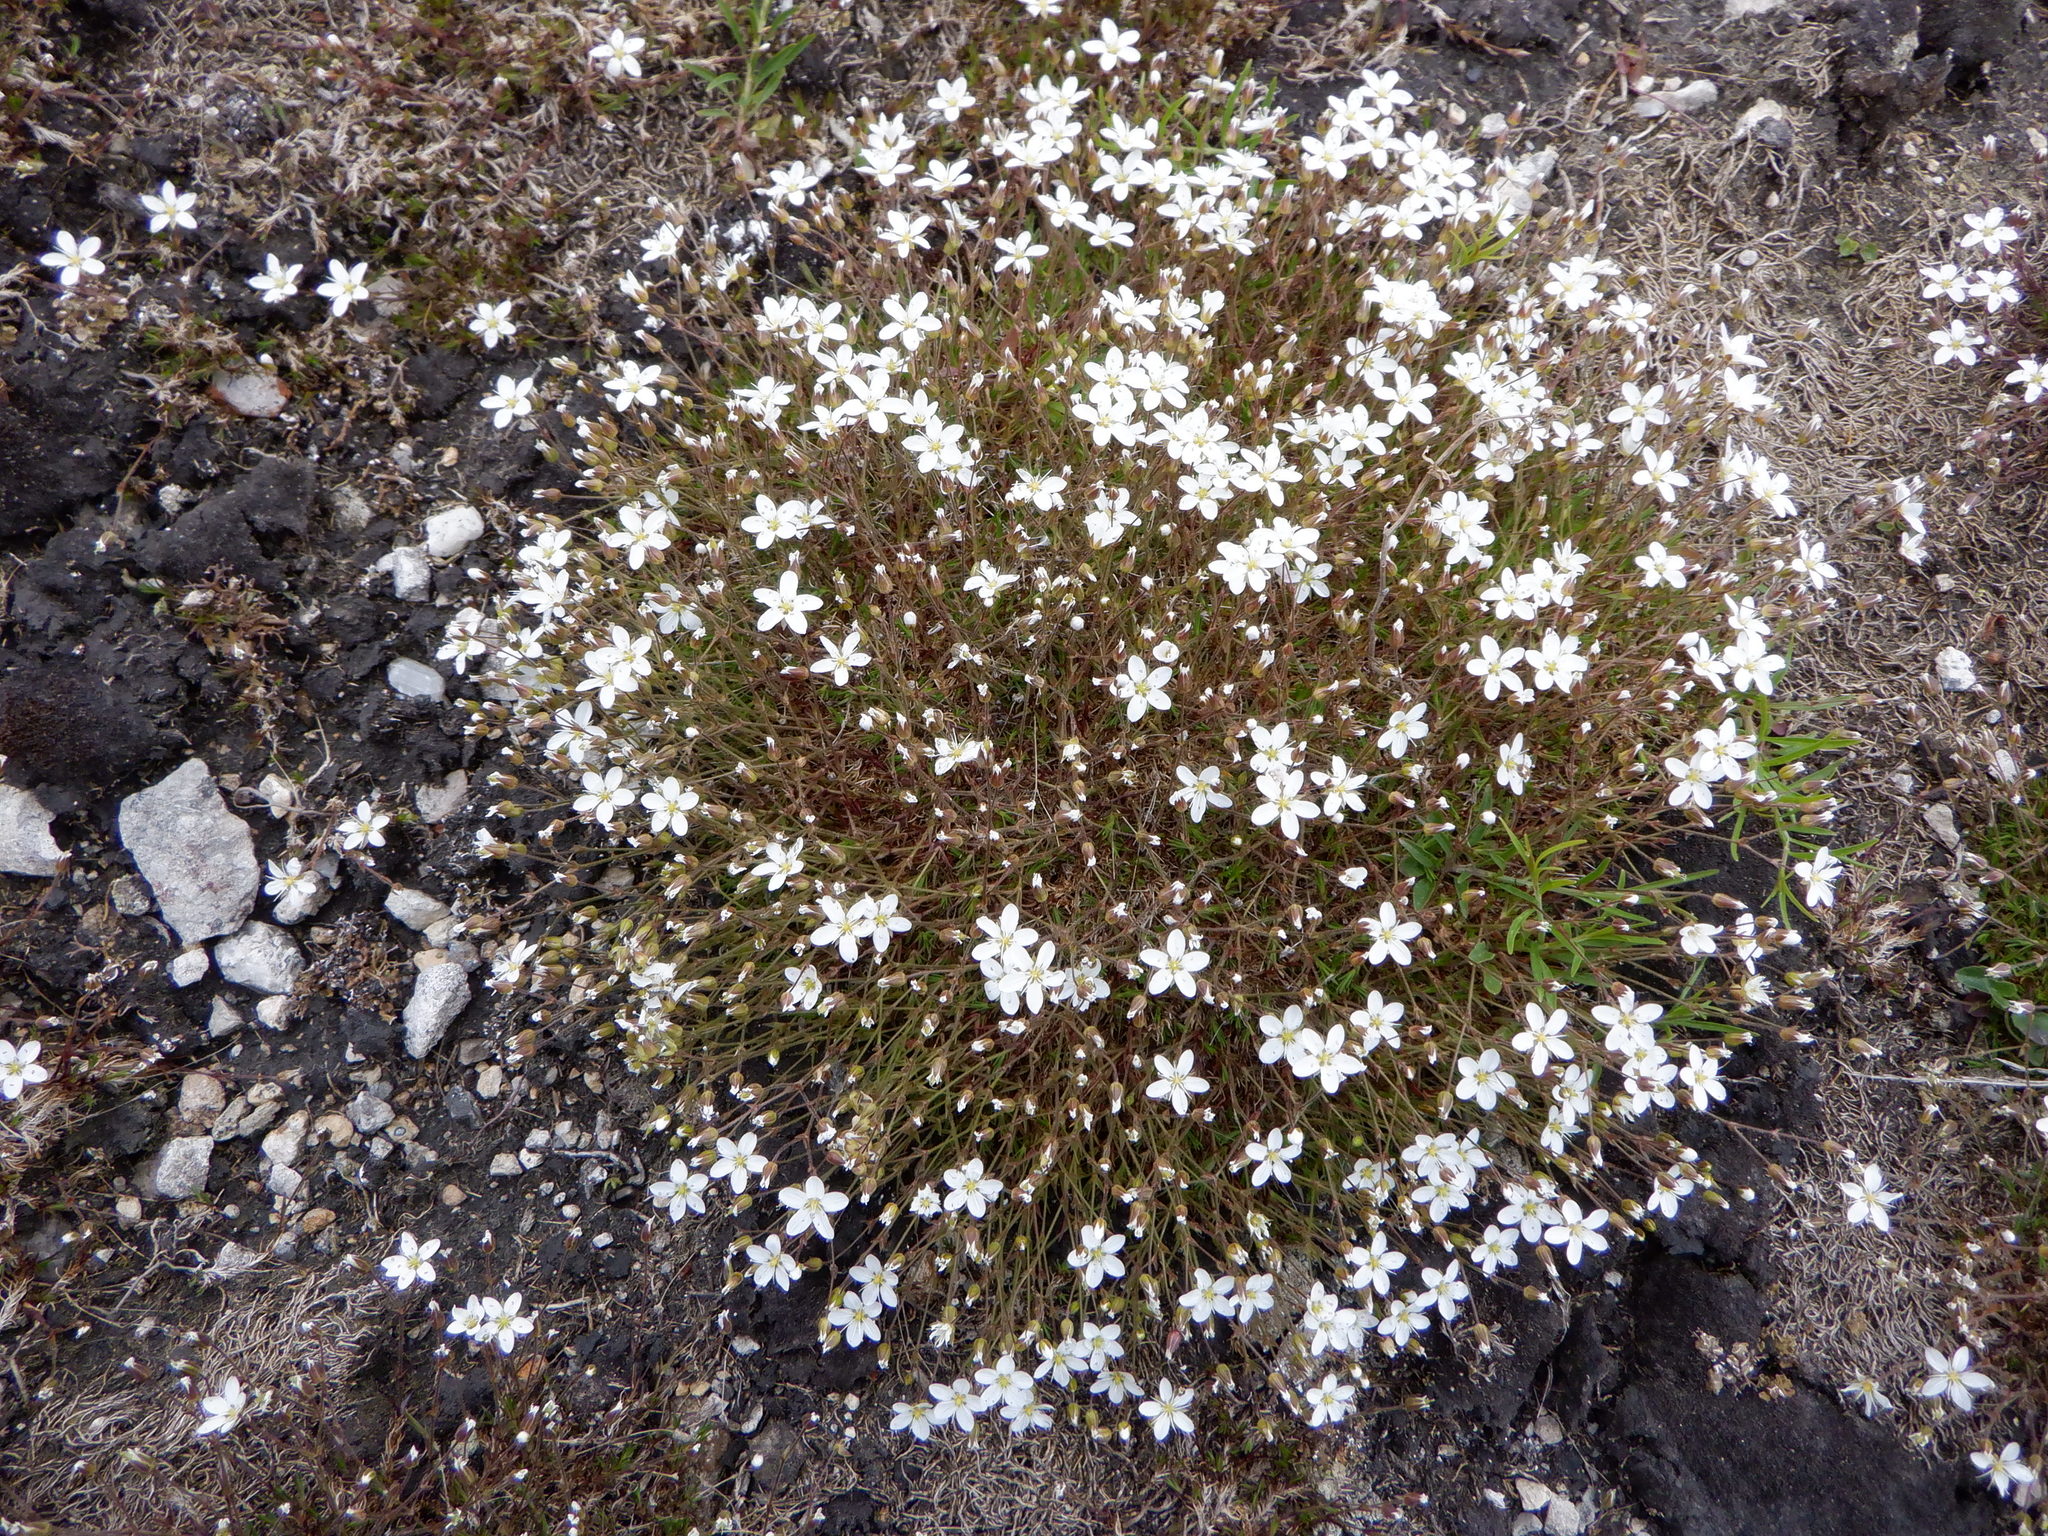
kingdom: Plantae
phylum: Tracheophyta
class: Magnoliopsida
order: Caryophyllales
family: Caryophyllaceae
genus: Sabulina
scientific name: Sabulina verna
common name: Spring sandwort
